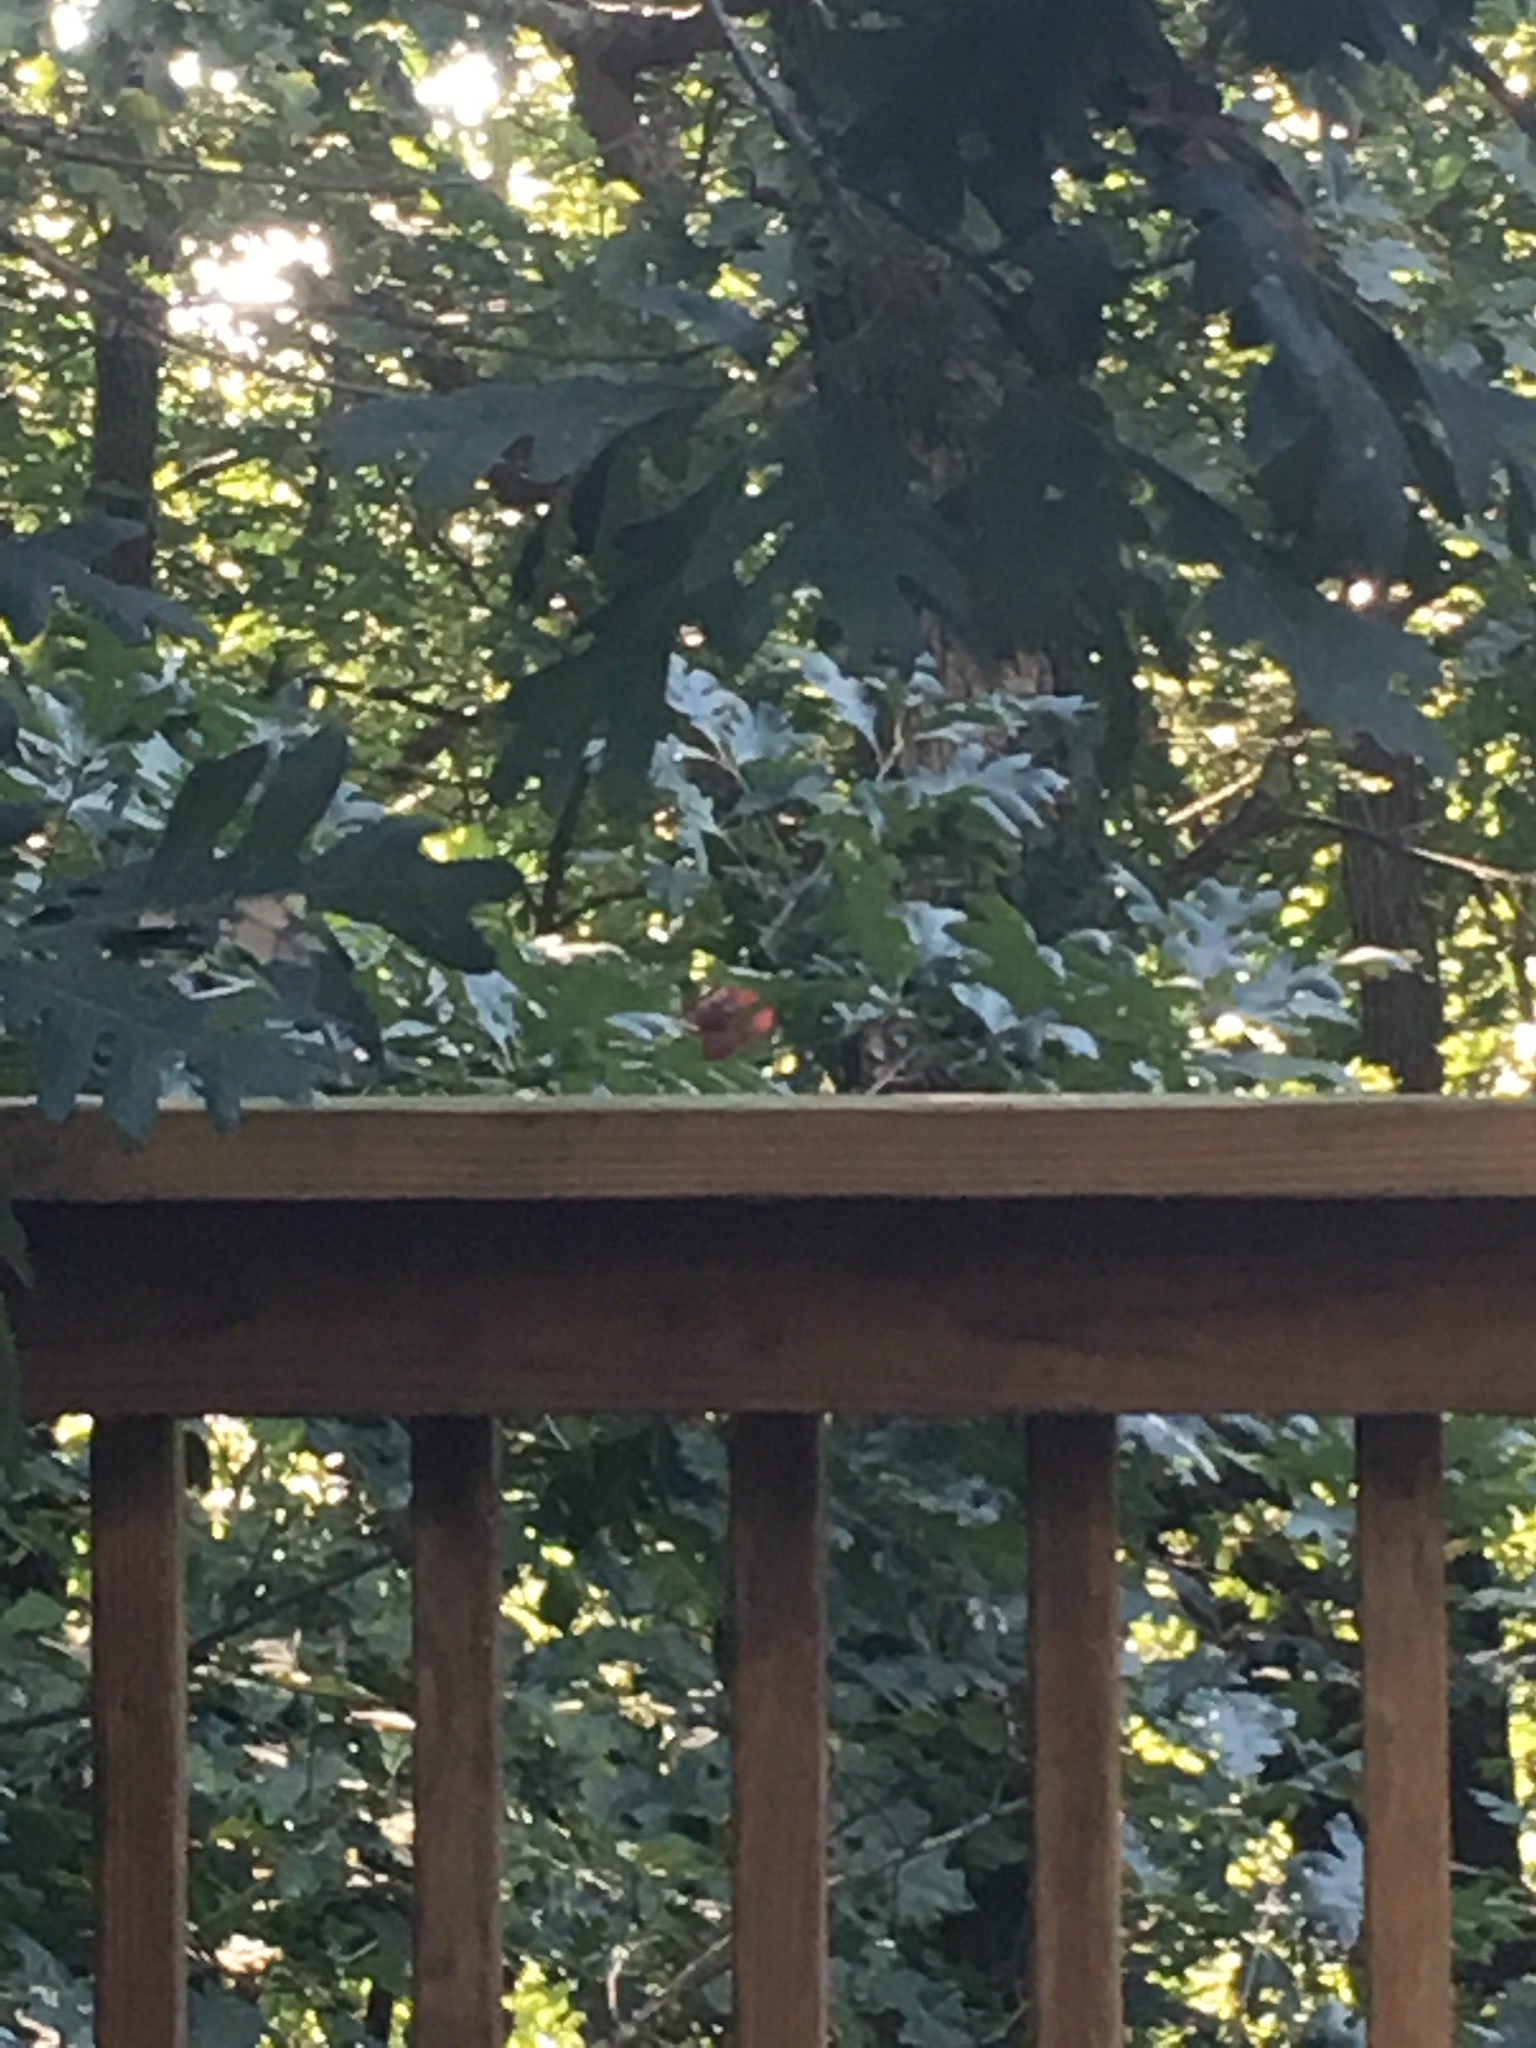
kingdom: Animalia
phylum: Chordata
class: Aves
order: Passeriformes
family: Cardinalidae
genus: Cardinalis
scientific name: Cardinalis cardinalis
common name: Northern cardinal
